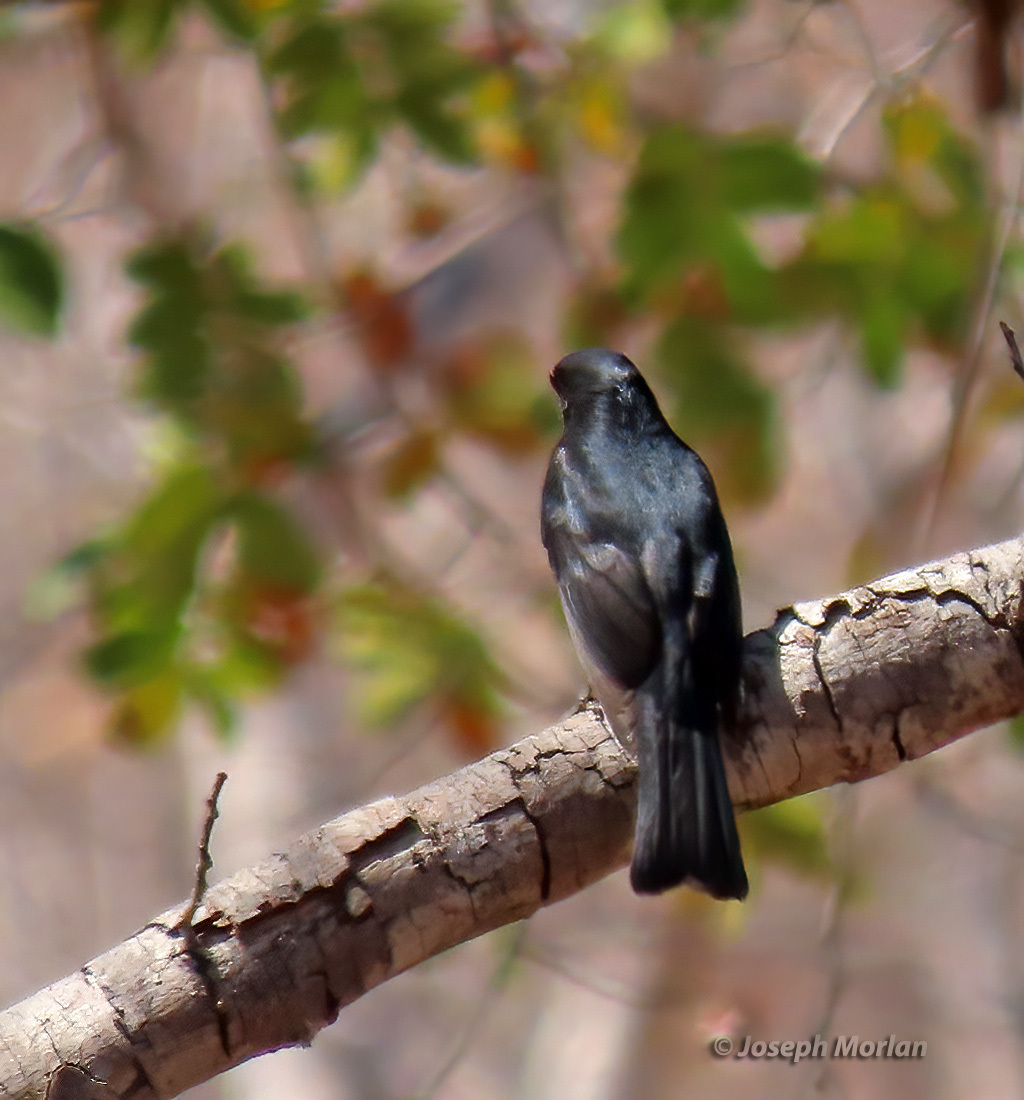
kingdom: Animalia
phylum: Chordata
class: Aves
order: Passeriformes
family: Muscicapidae
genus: Melaenornis
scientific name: Melaenornis pammelaina
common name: Southern black flycatcher
